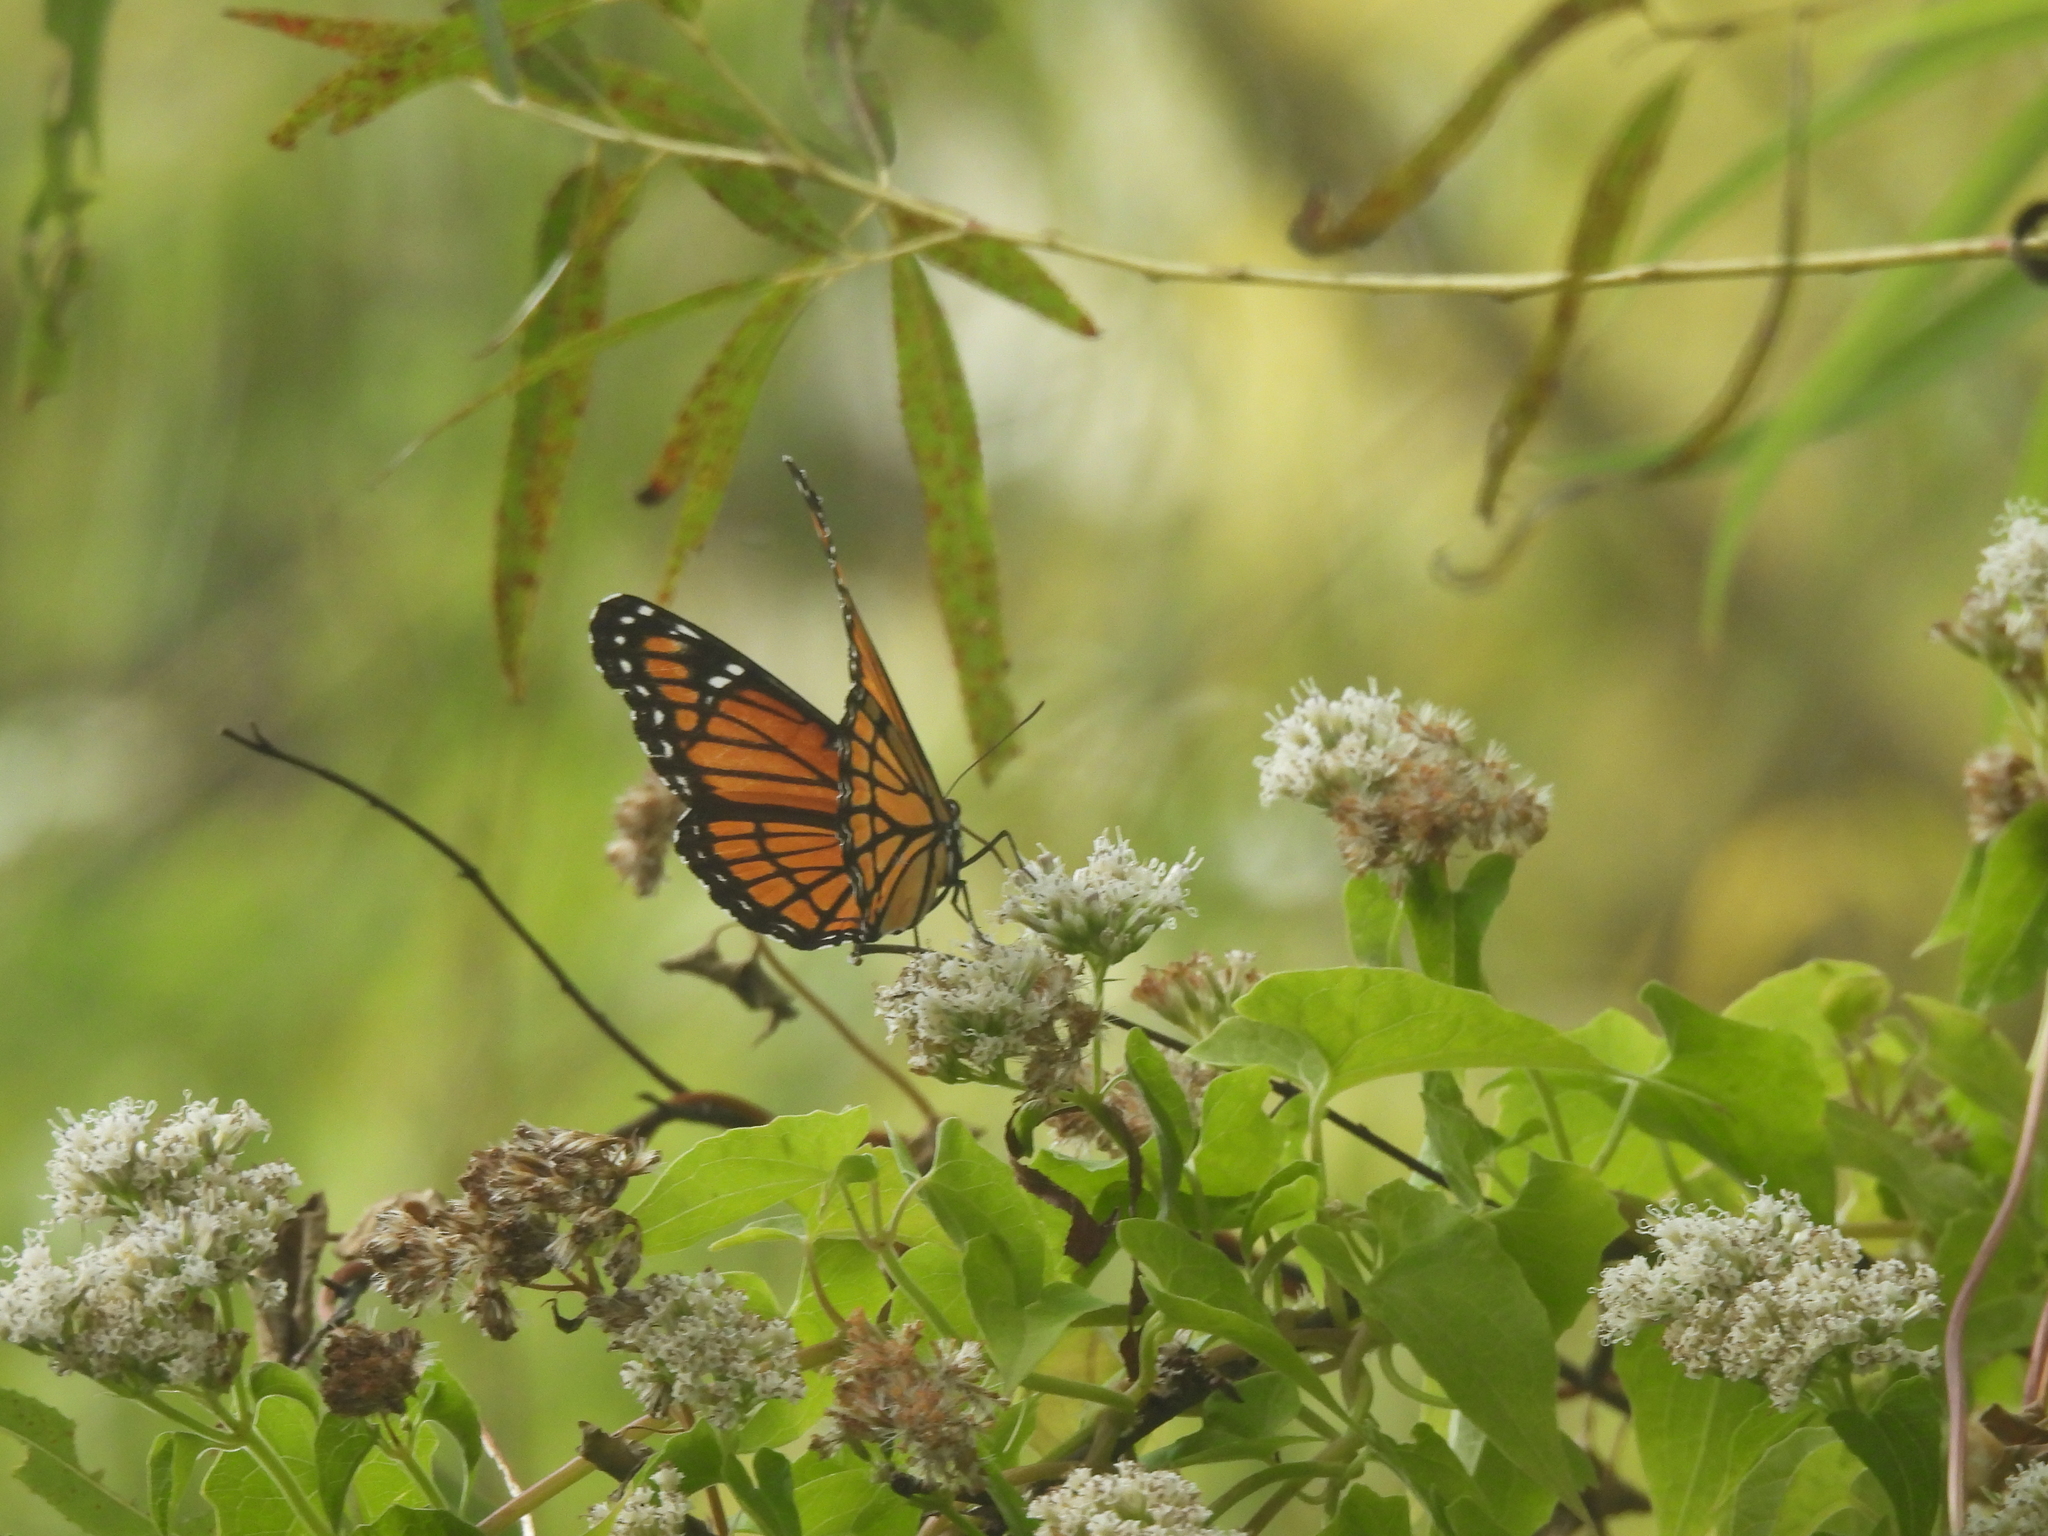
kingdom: Animalia
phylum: Arthropoda
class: Insecta
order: Lepidoptera
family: Nymphalidae
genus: Limenitis
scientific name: Limenitis archippus
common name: Viceroy
